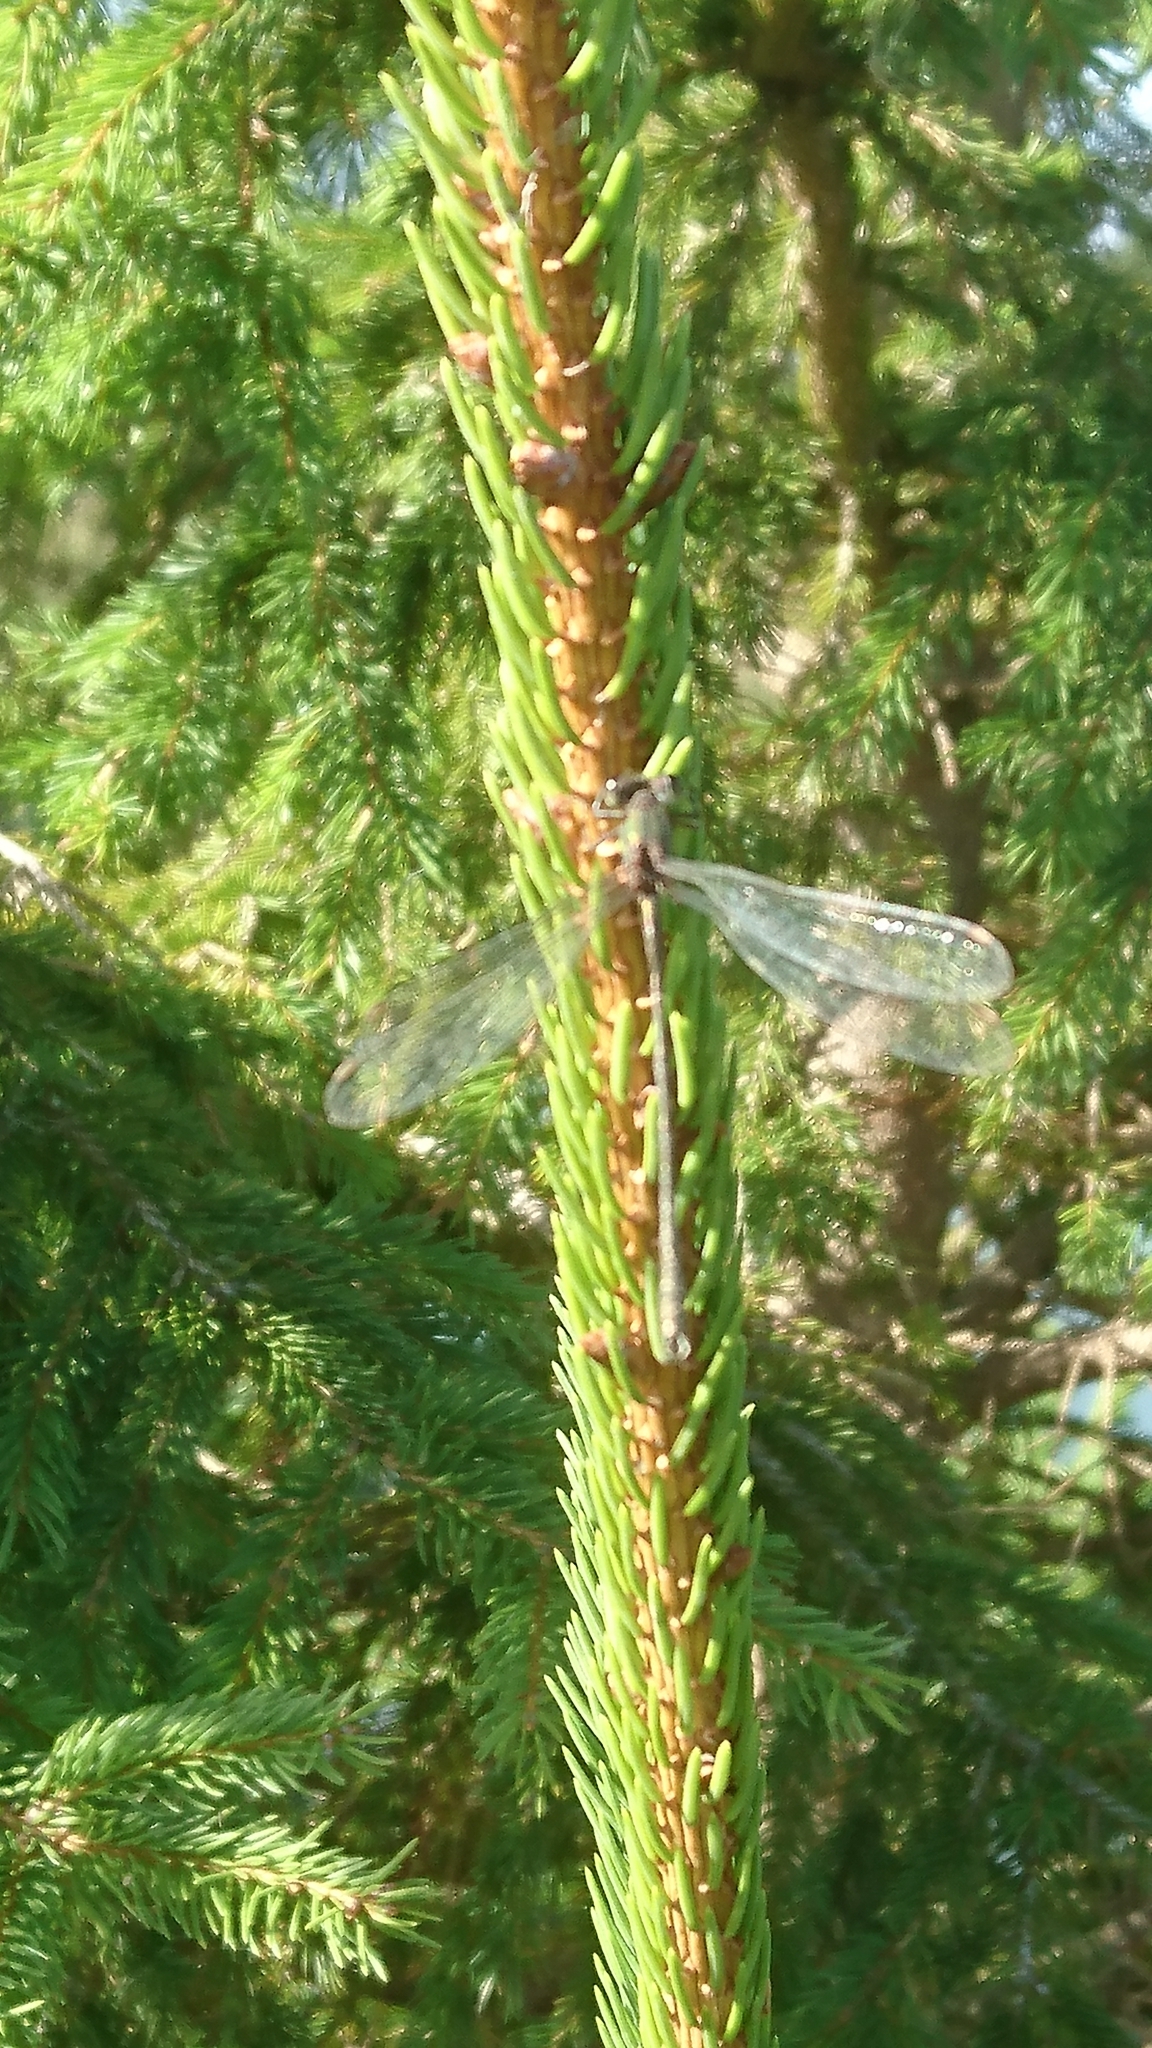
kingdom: Animalia
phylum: Arthropoda
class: Insecta
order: Odonata
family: Lestidae
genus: Chalcolestes
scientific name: Chalcolestes viridis
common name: Green emerald damselfly
